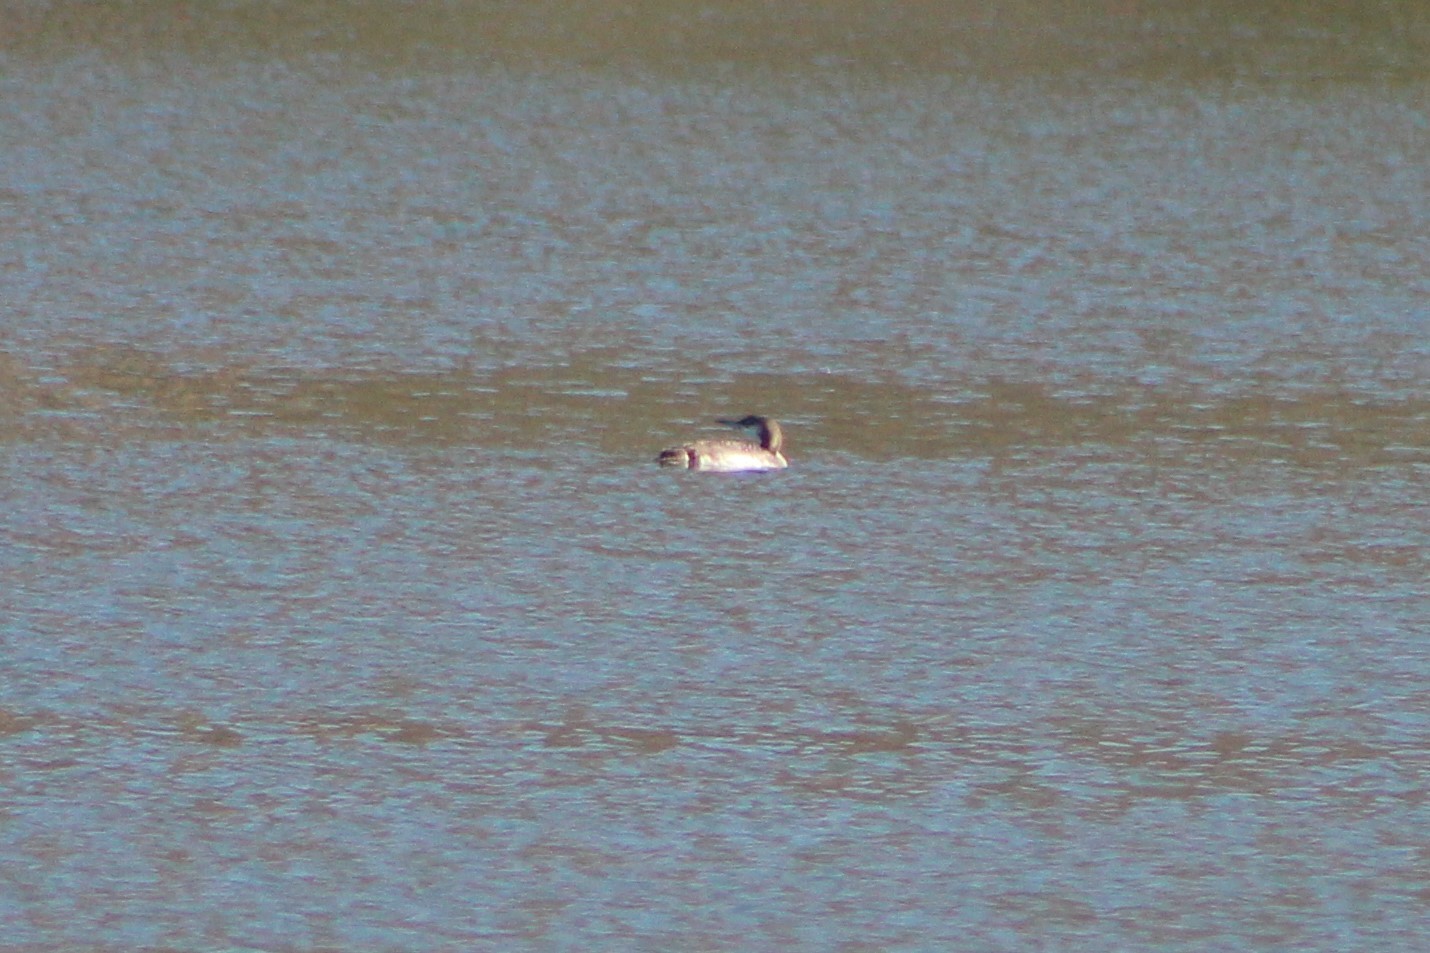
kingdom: Animalia
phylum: Chordata
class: Aves
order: Gaviiformes
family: Gaviidae
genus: Gavia
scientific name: Gavia immer
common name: Common loon
